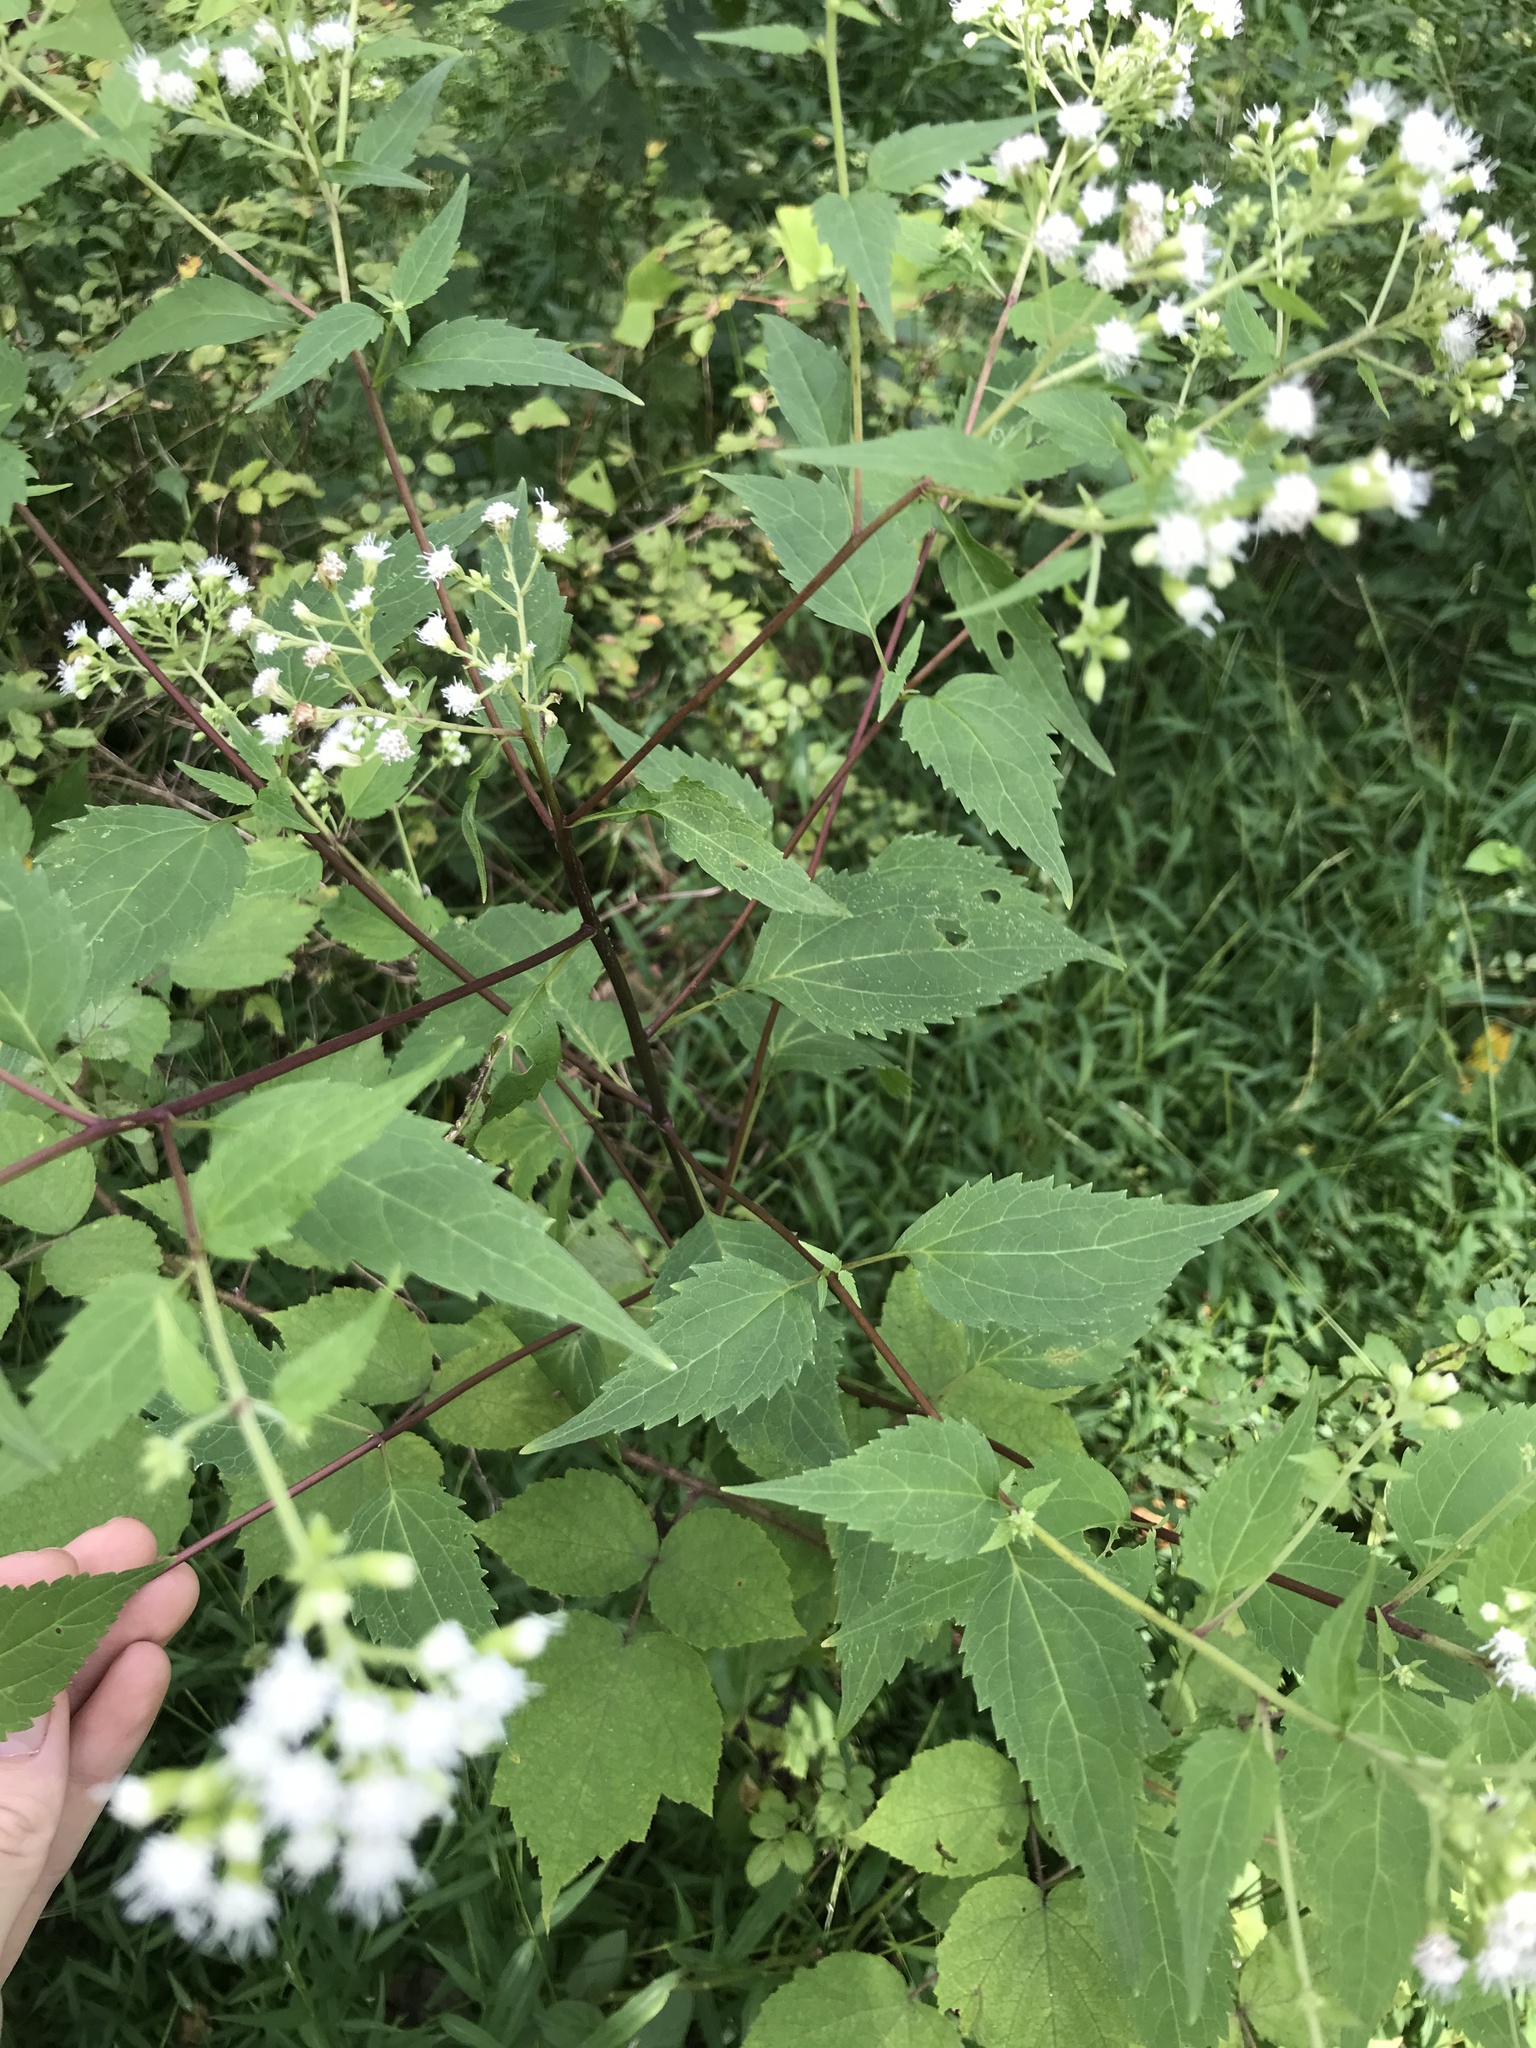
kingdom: Plantae
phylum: Tracheophyta
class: Magnoliopsida
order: Asterales
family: Asteraceae
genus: Ageratina
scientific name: Ageratina altissima
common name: White snakeroot
